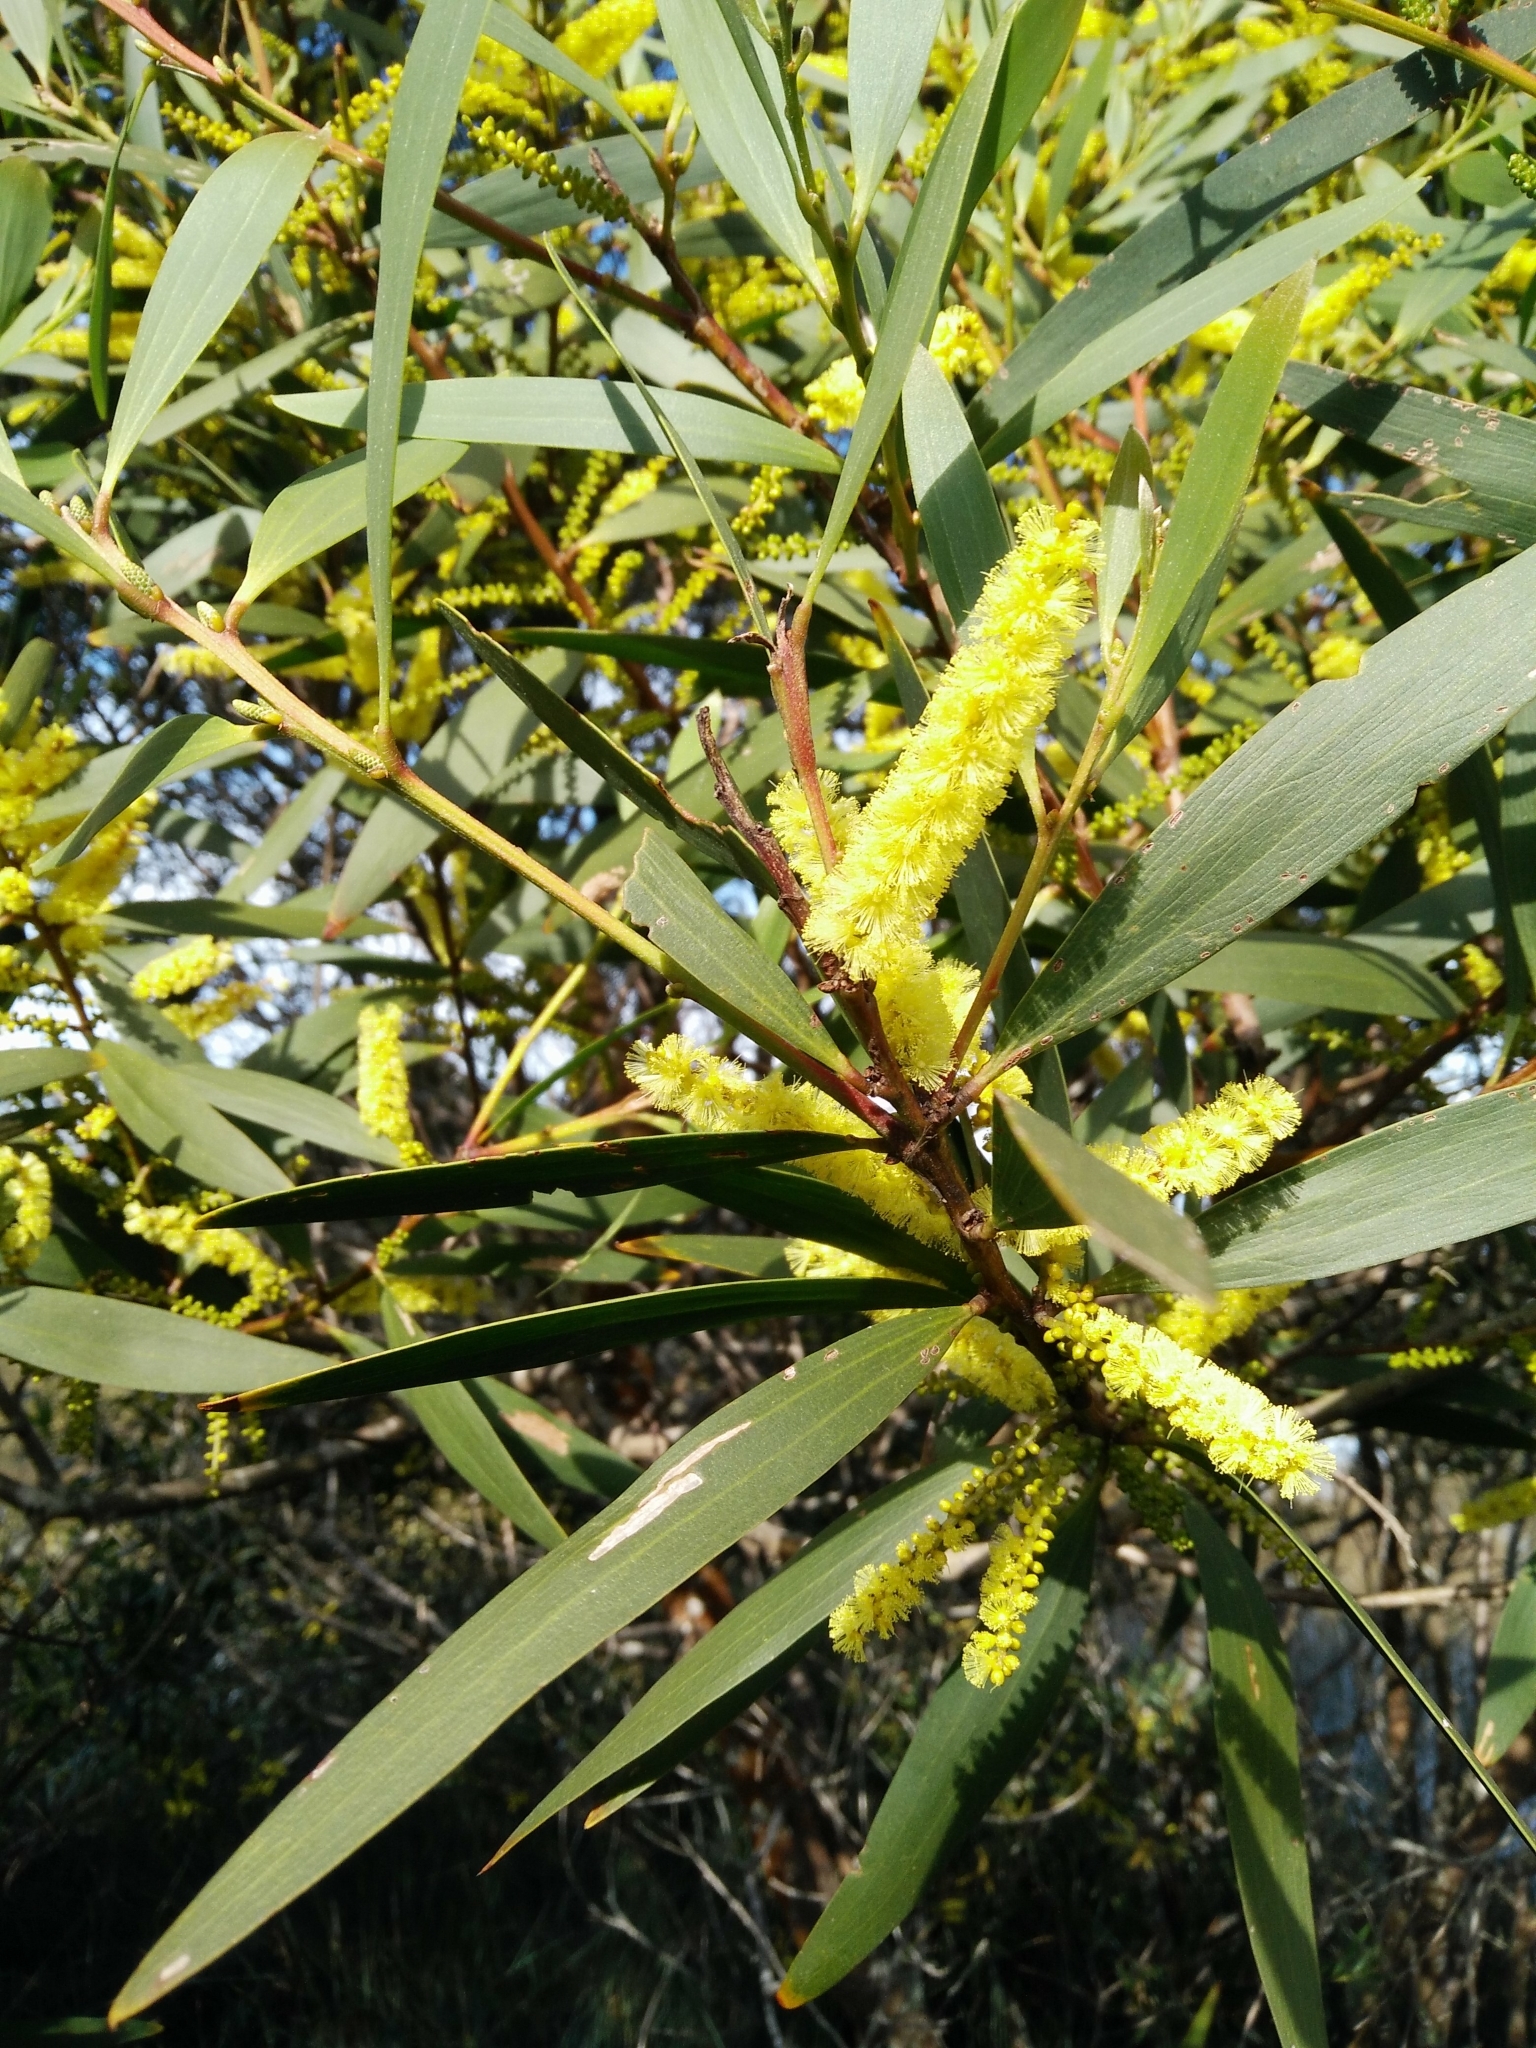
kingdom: Plantae
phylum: Tracheophyta
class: Magnoliopsida
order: Fabales
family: Fabaceae
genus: Acacia
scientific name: Acacia longifolia
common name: Sydney golden wattle
